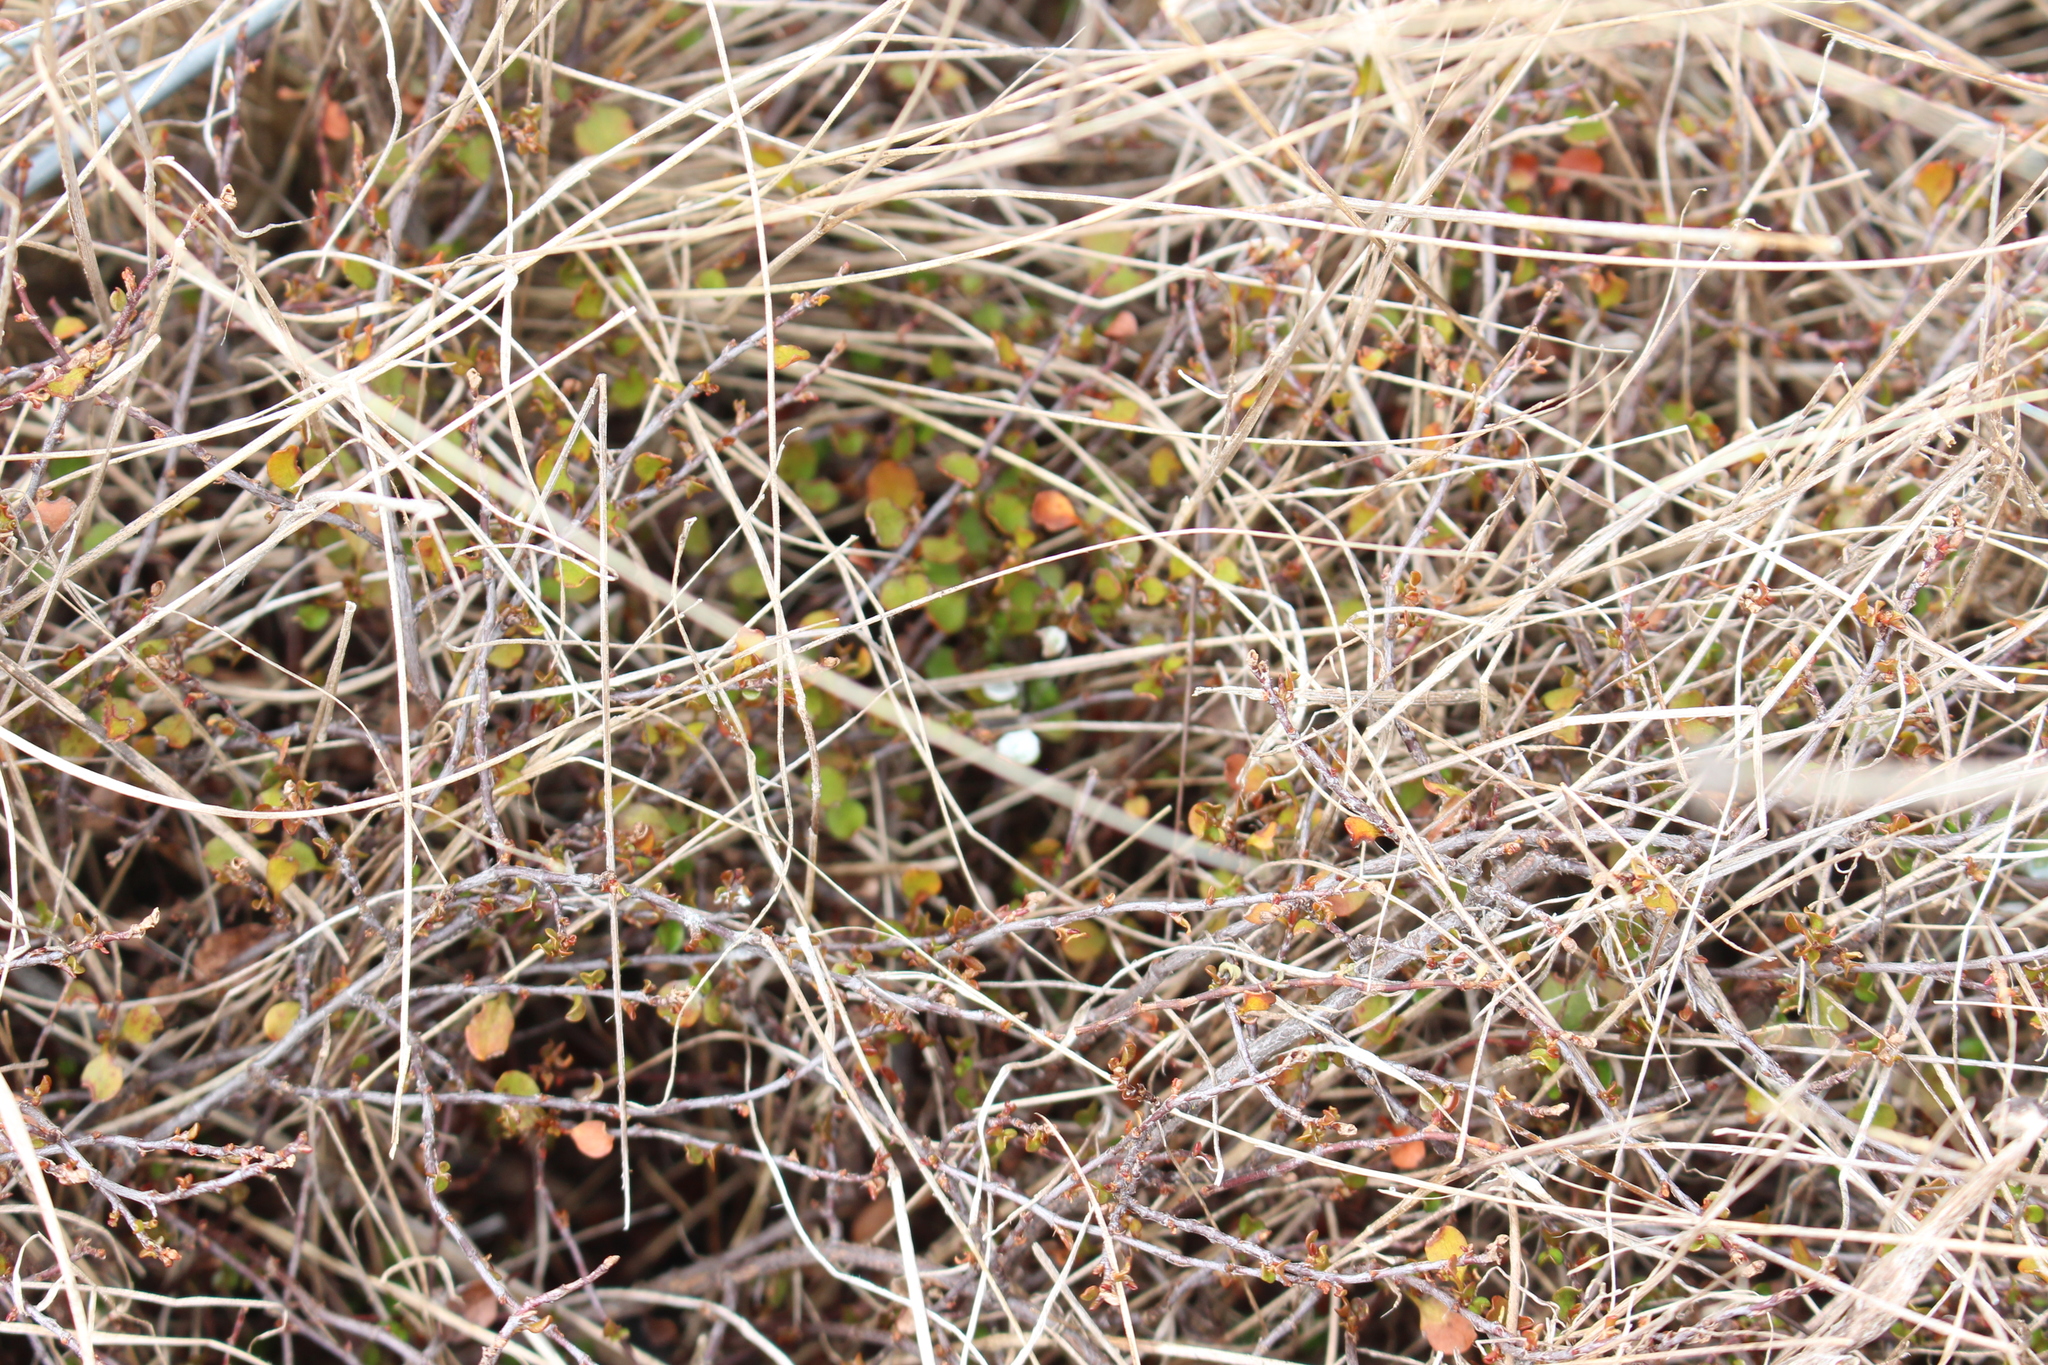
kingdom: Plantae
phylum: Tracheophyta
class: Magnoliopsida
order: Caryophyllales
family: Polygonaceae
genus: Muehlenbeckia
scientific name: Muehlenbeckia axillaris
